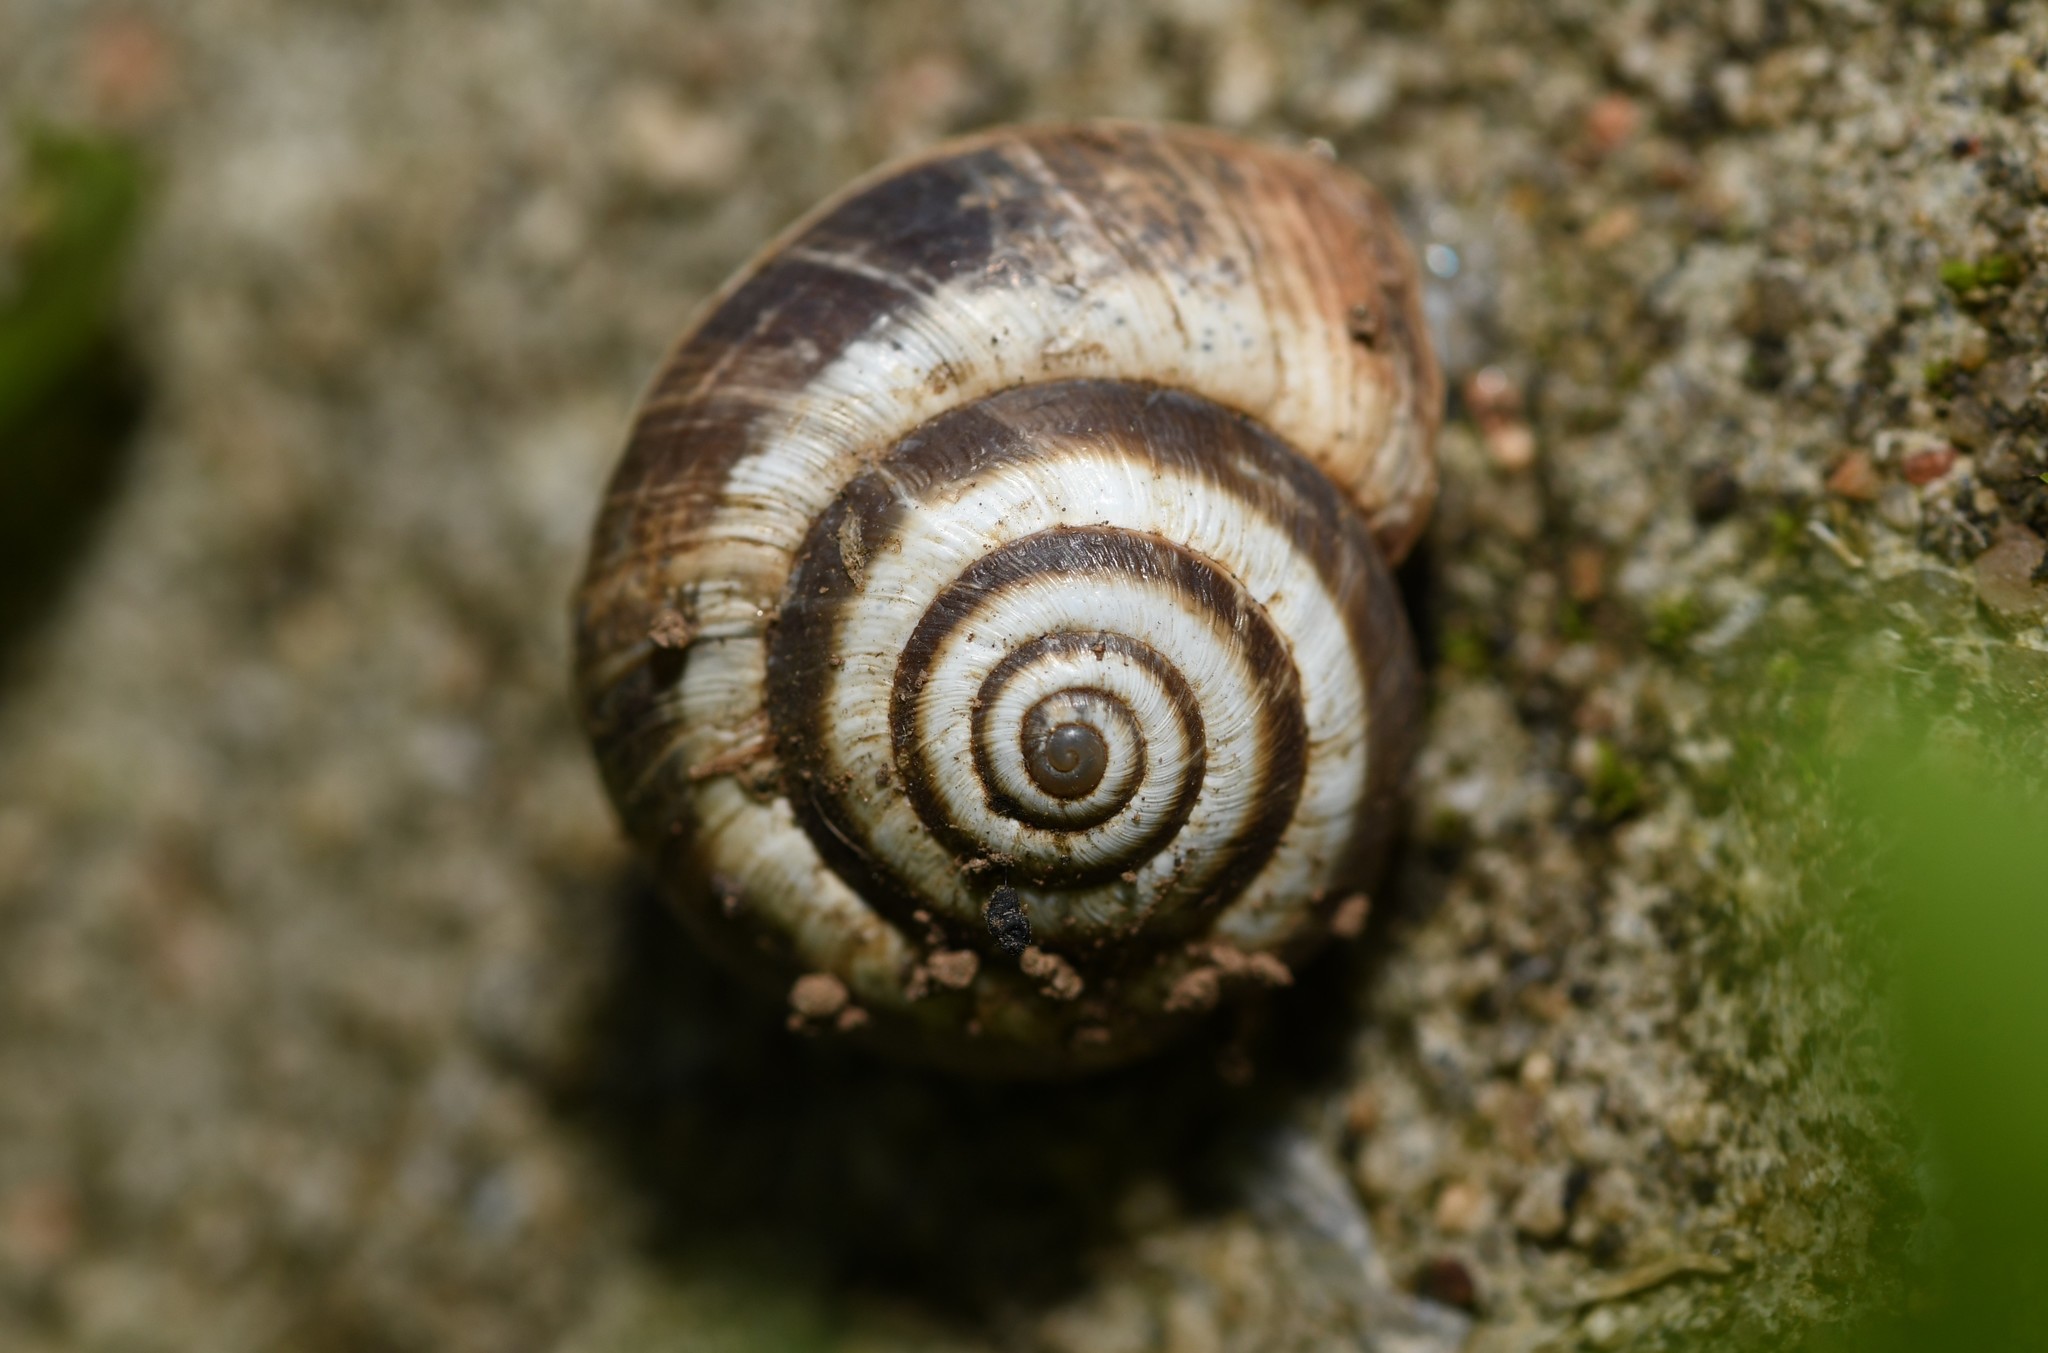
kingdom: Animalia
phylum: Mollusca
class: Gastropoda
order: Stylommatophora
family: Geomitridae
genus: Cernuella
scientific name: Cernuella virgata
